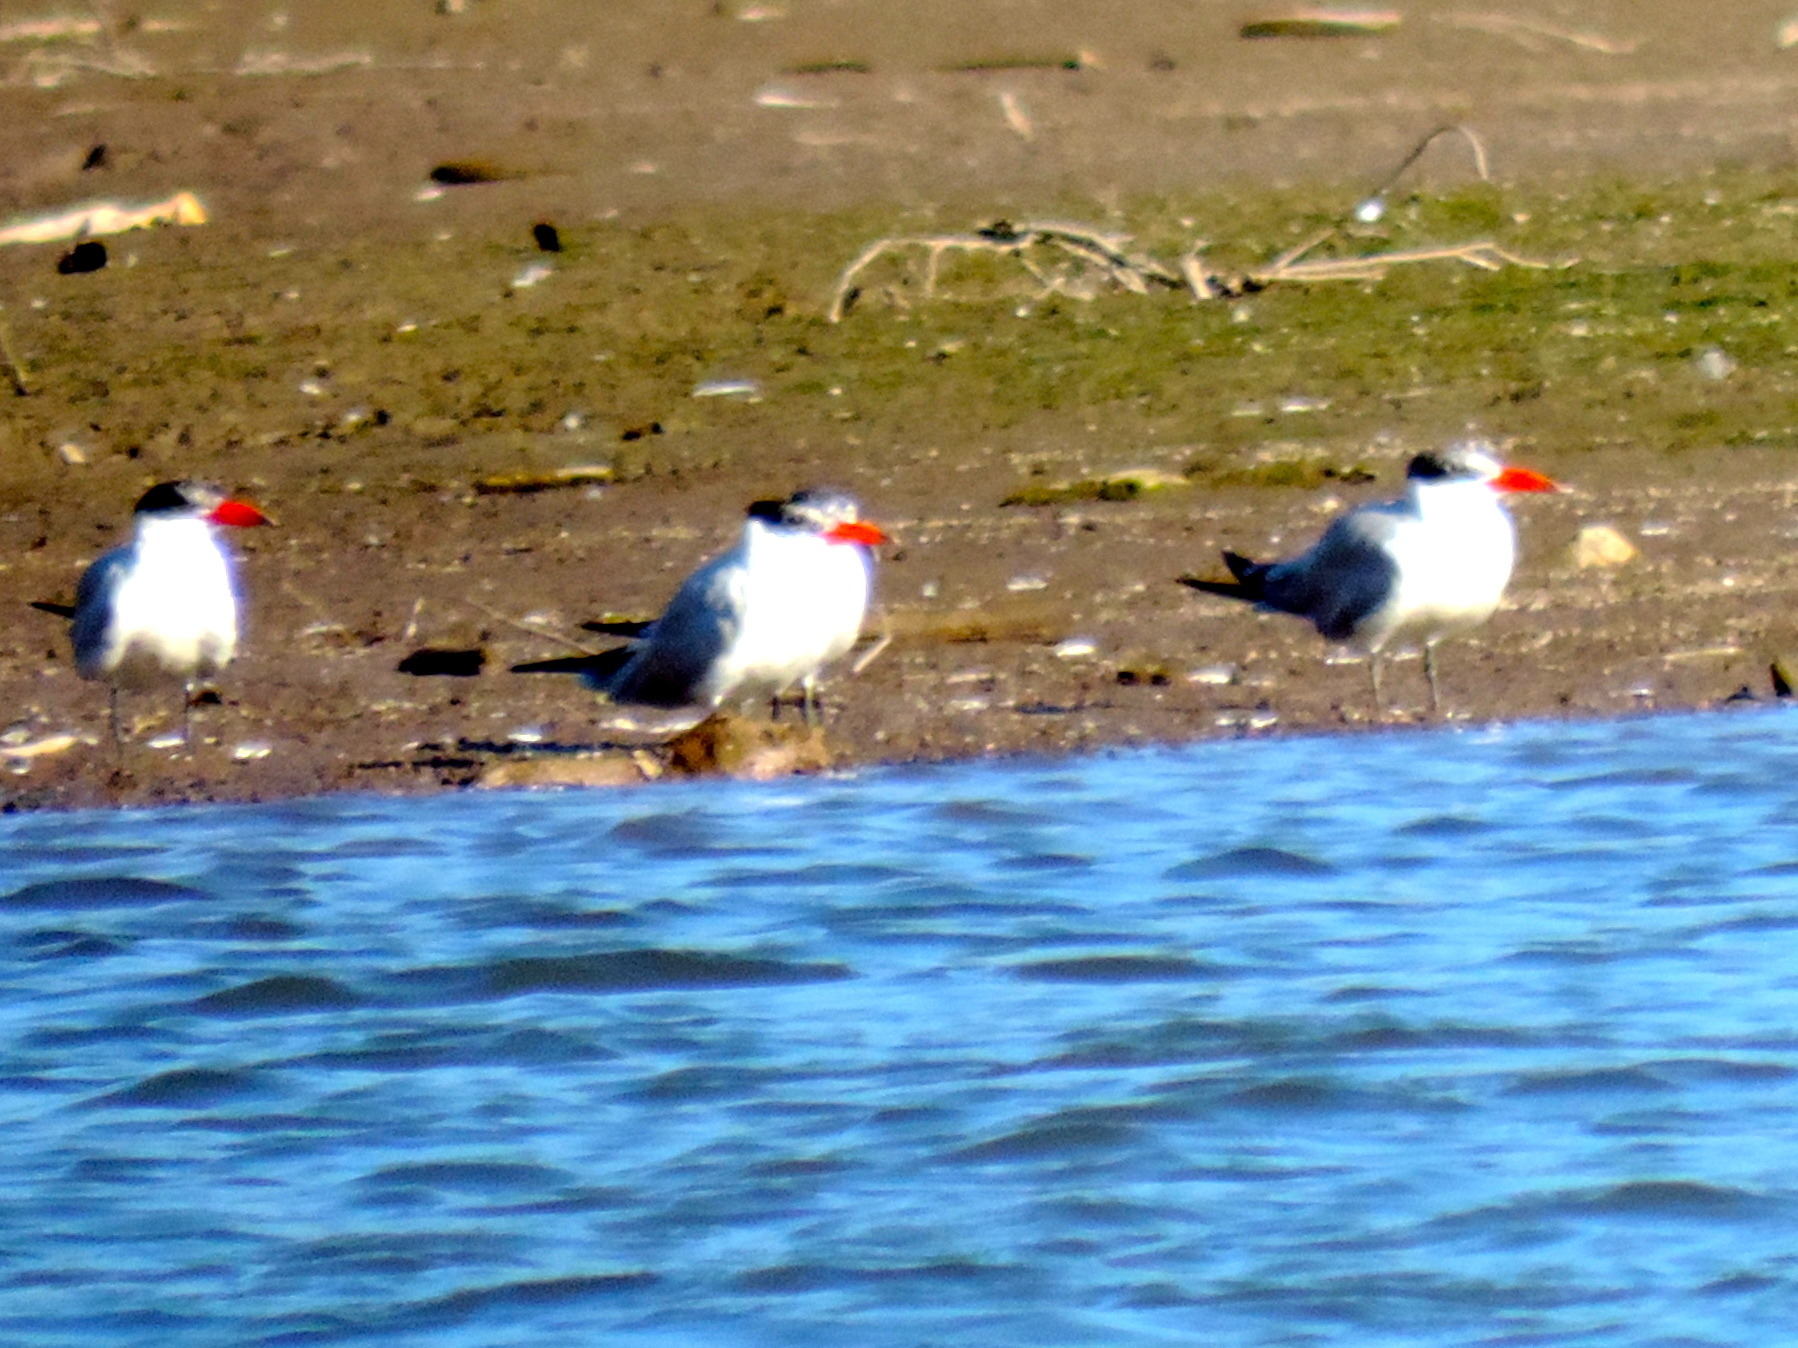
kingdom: Animalia
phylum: Chordata
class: Aves
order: Charadriiformes
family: Laridae
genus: Hydroprogne
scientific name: Hydroprogne caspia
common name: Caspian tern
